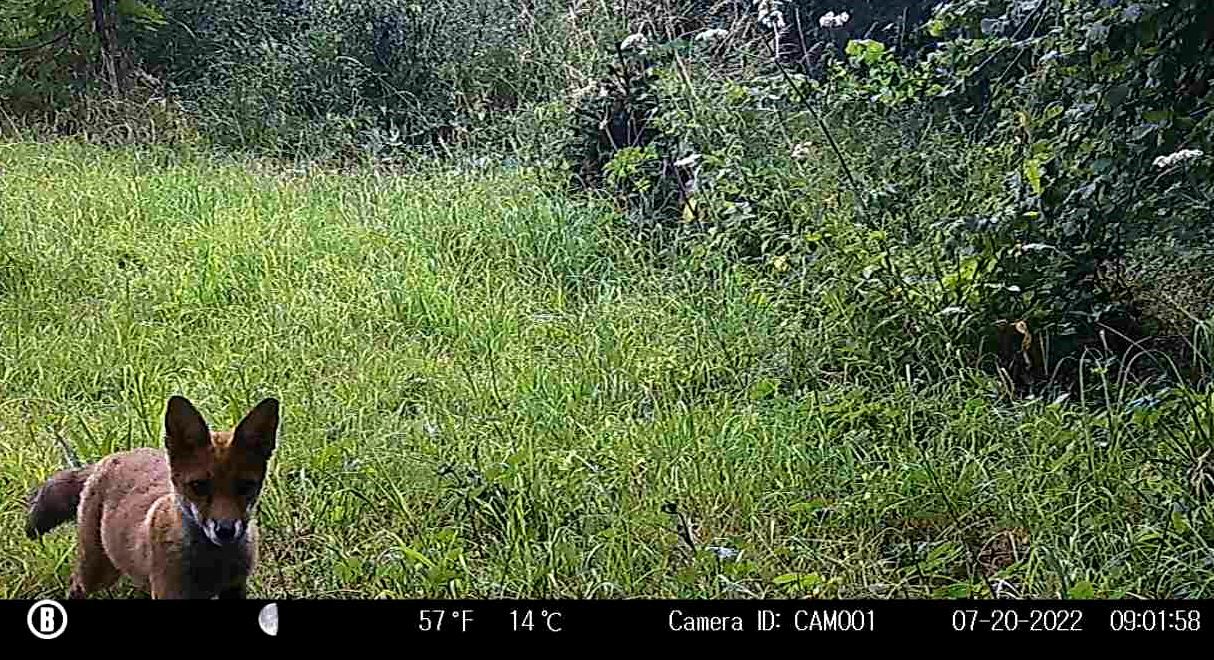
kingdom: Animalia
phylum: Chordata
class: Mammalia
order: Carnivora
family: Canidae
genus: Vulpes
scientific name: Vulpes vulpes
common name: Red fox
